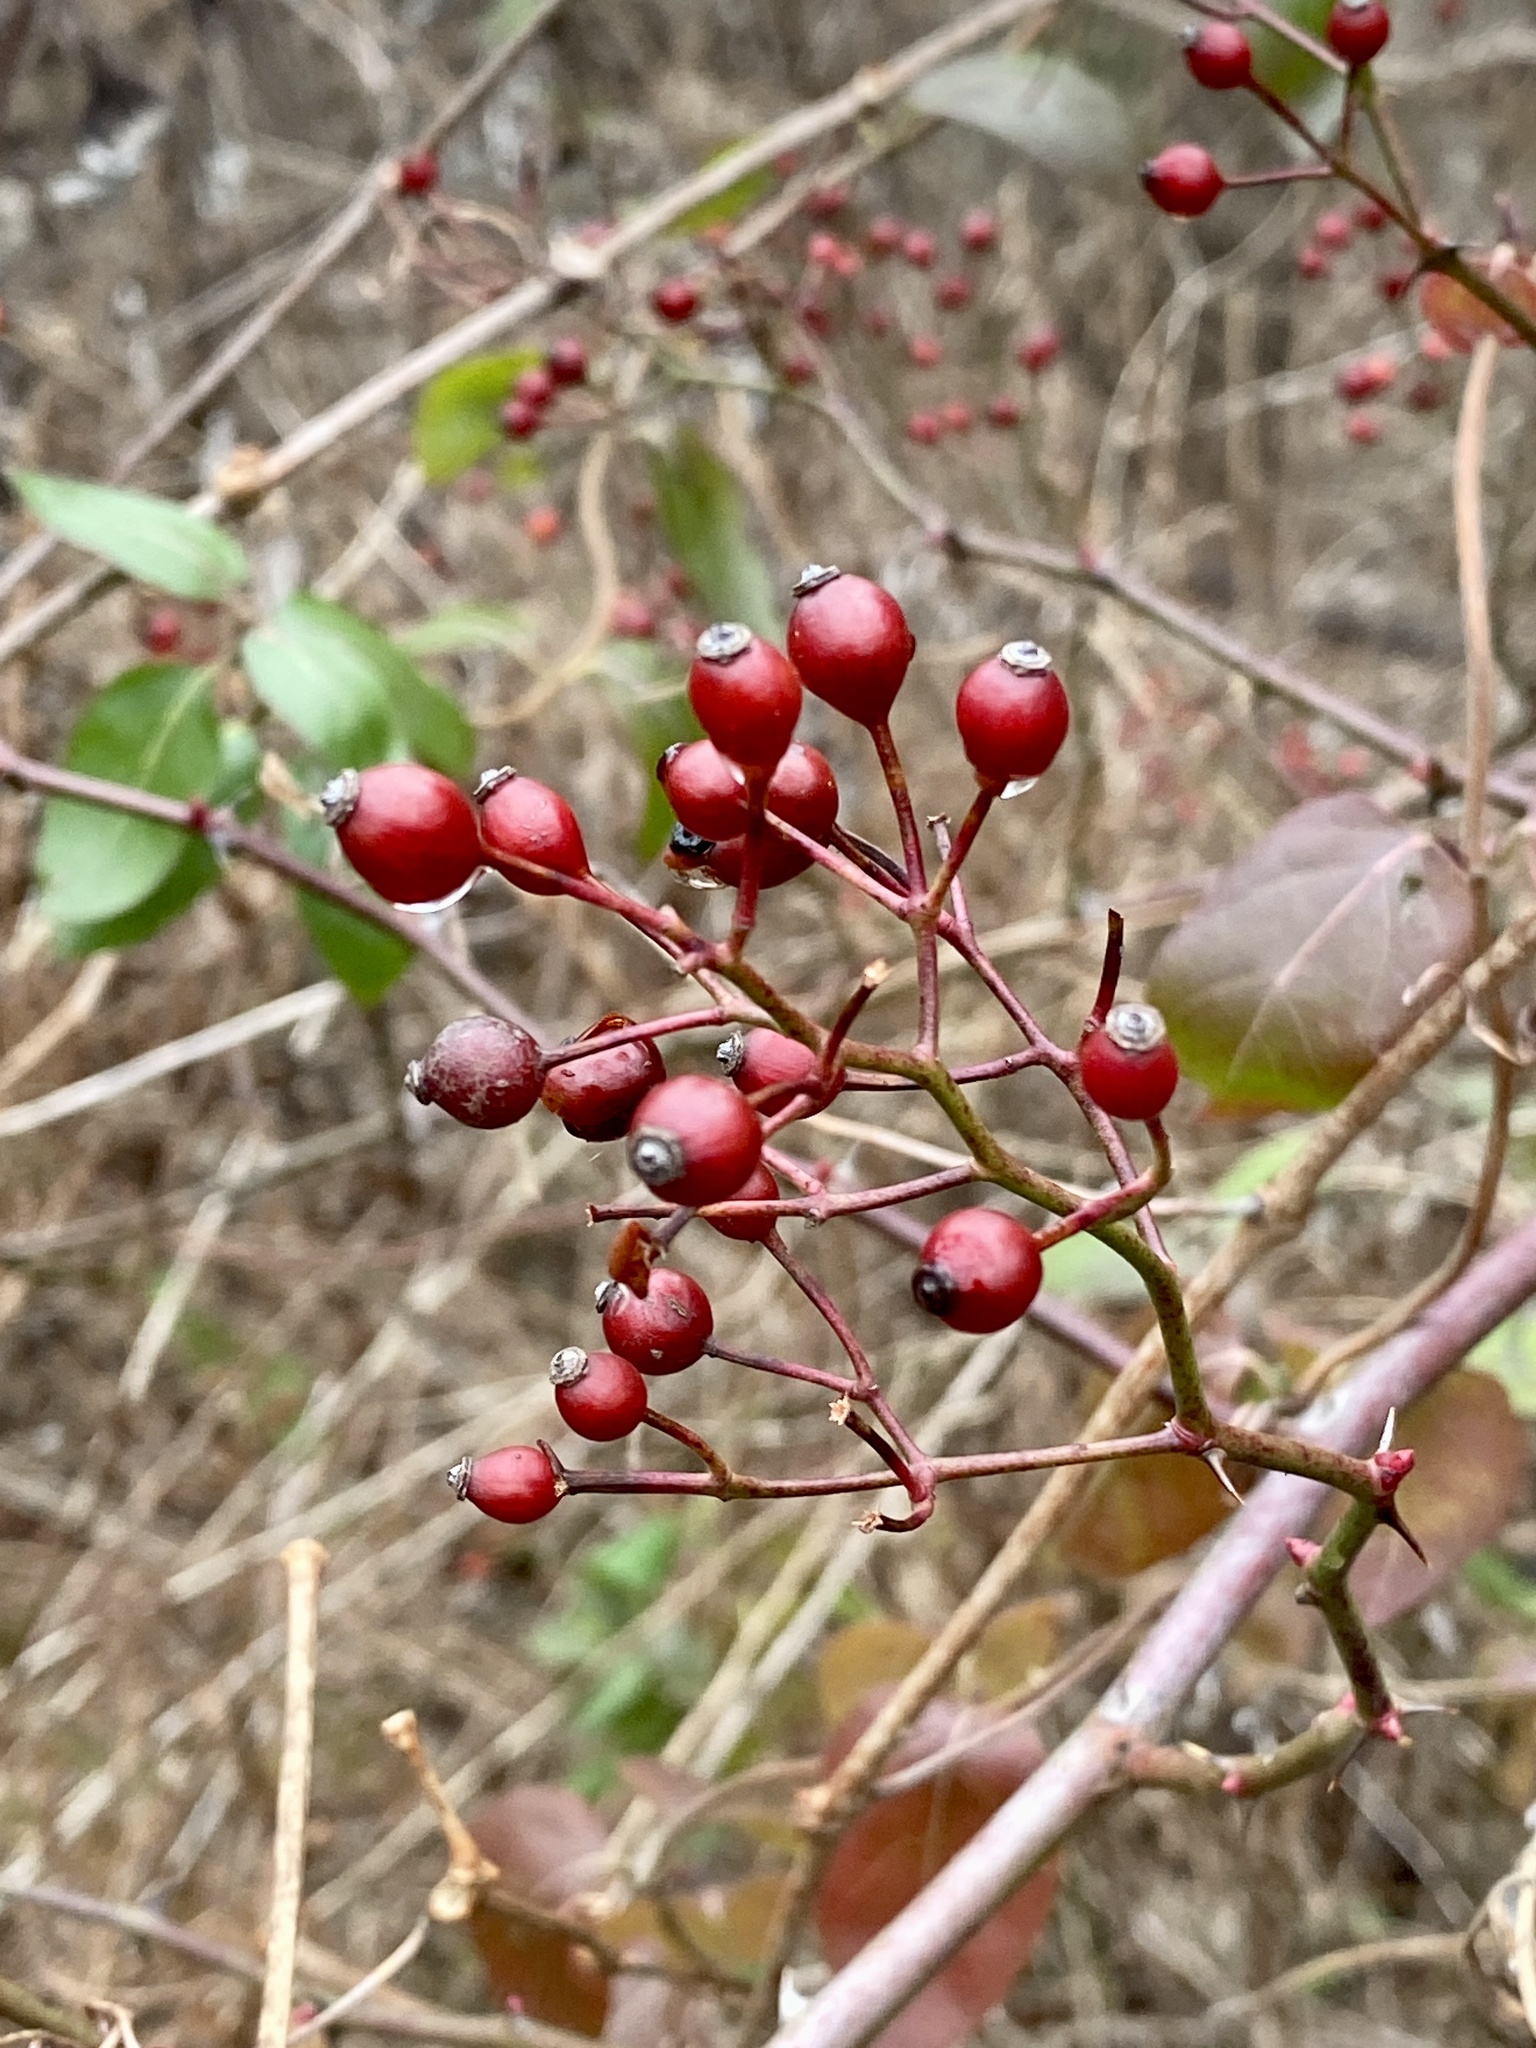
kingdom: Plantae
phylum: Tracheophyta
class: Magnoliopsida
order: Rosales
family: Rosaceae
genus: Rosa
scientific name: Rosa multiflora
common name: Multiflora rose
